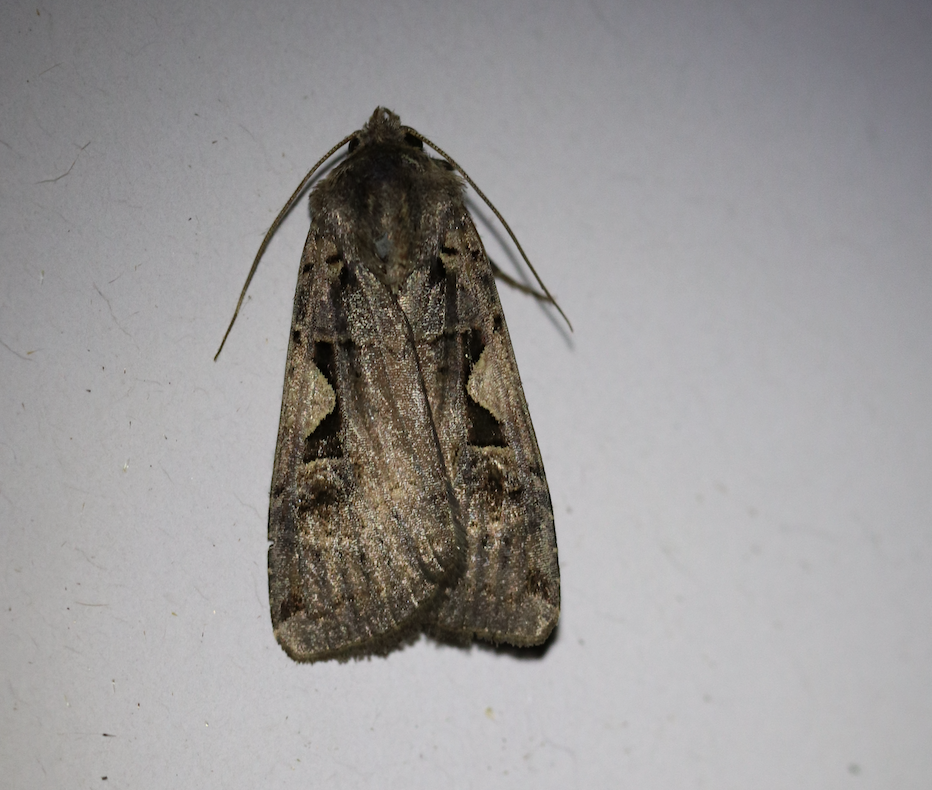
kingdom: Animalia
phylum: Arthropoda
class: Insecta
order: Lepidoptera
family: Noctuidae
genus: Xestia
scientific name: Xestia c-nigrum
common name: Setaceous hebrew character
